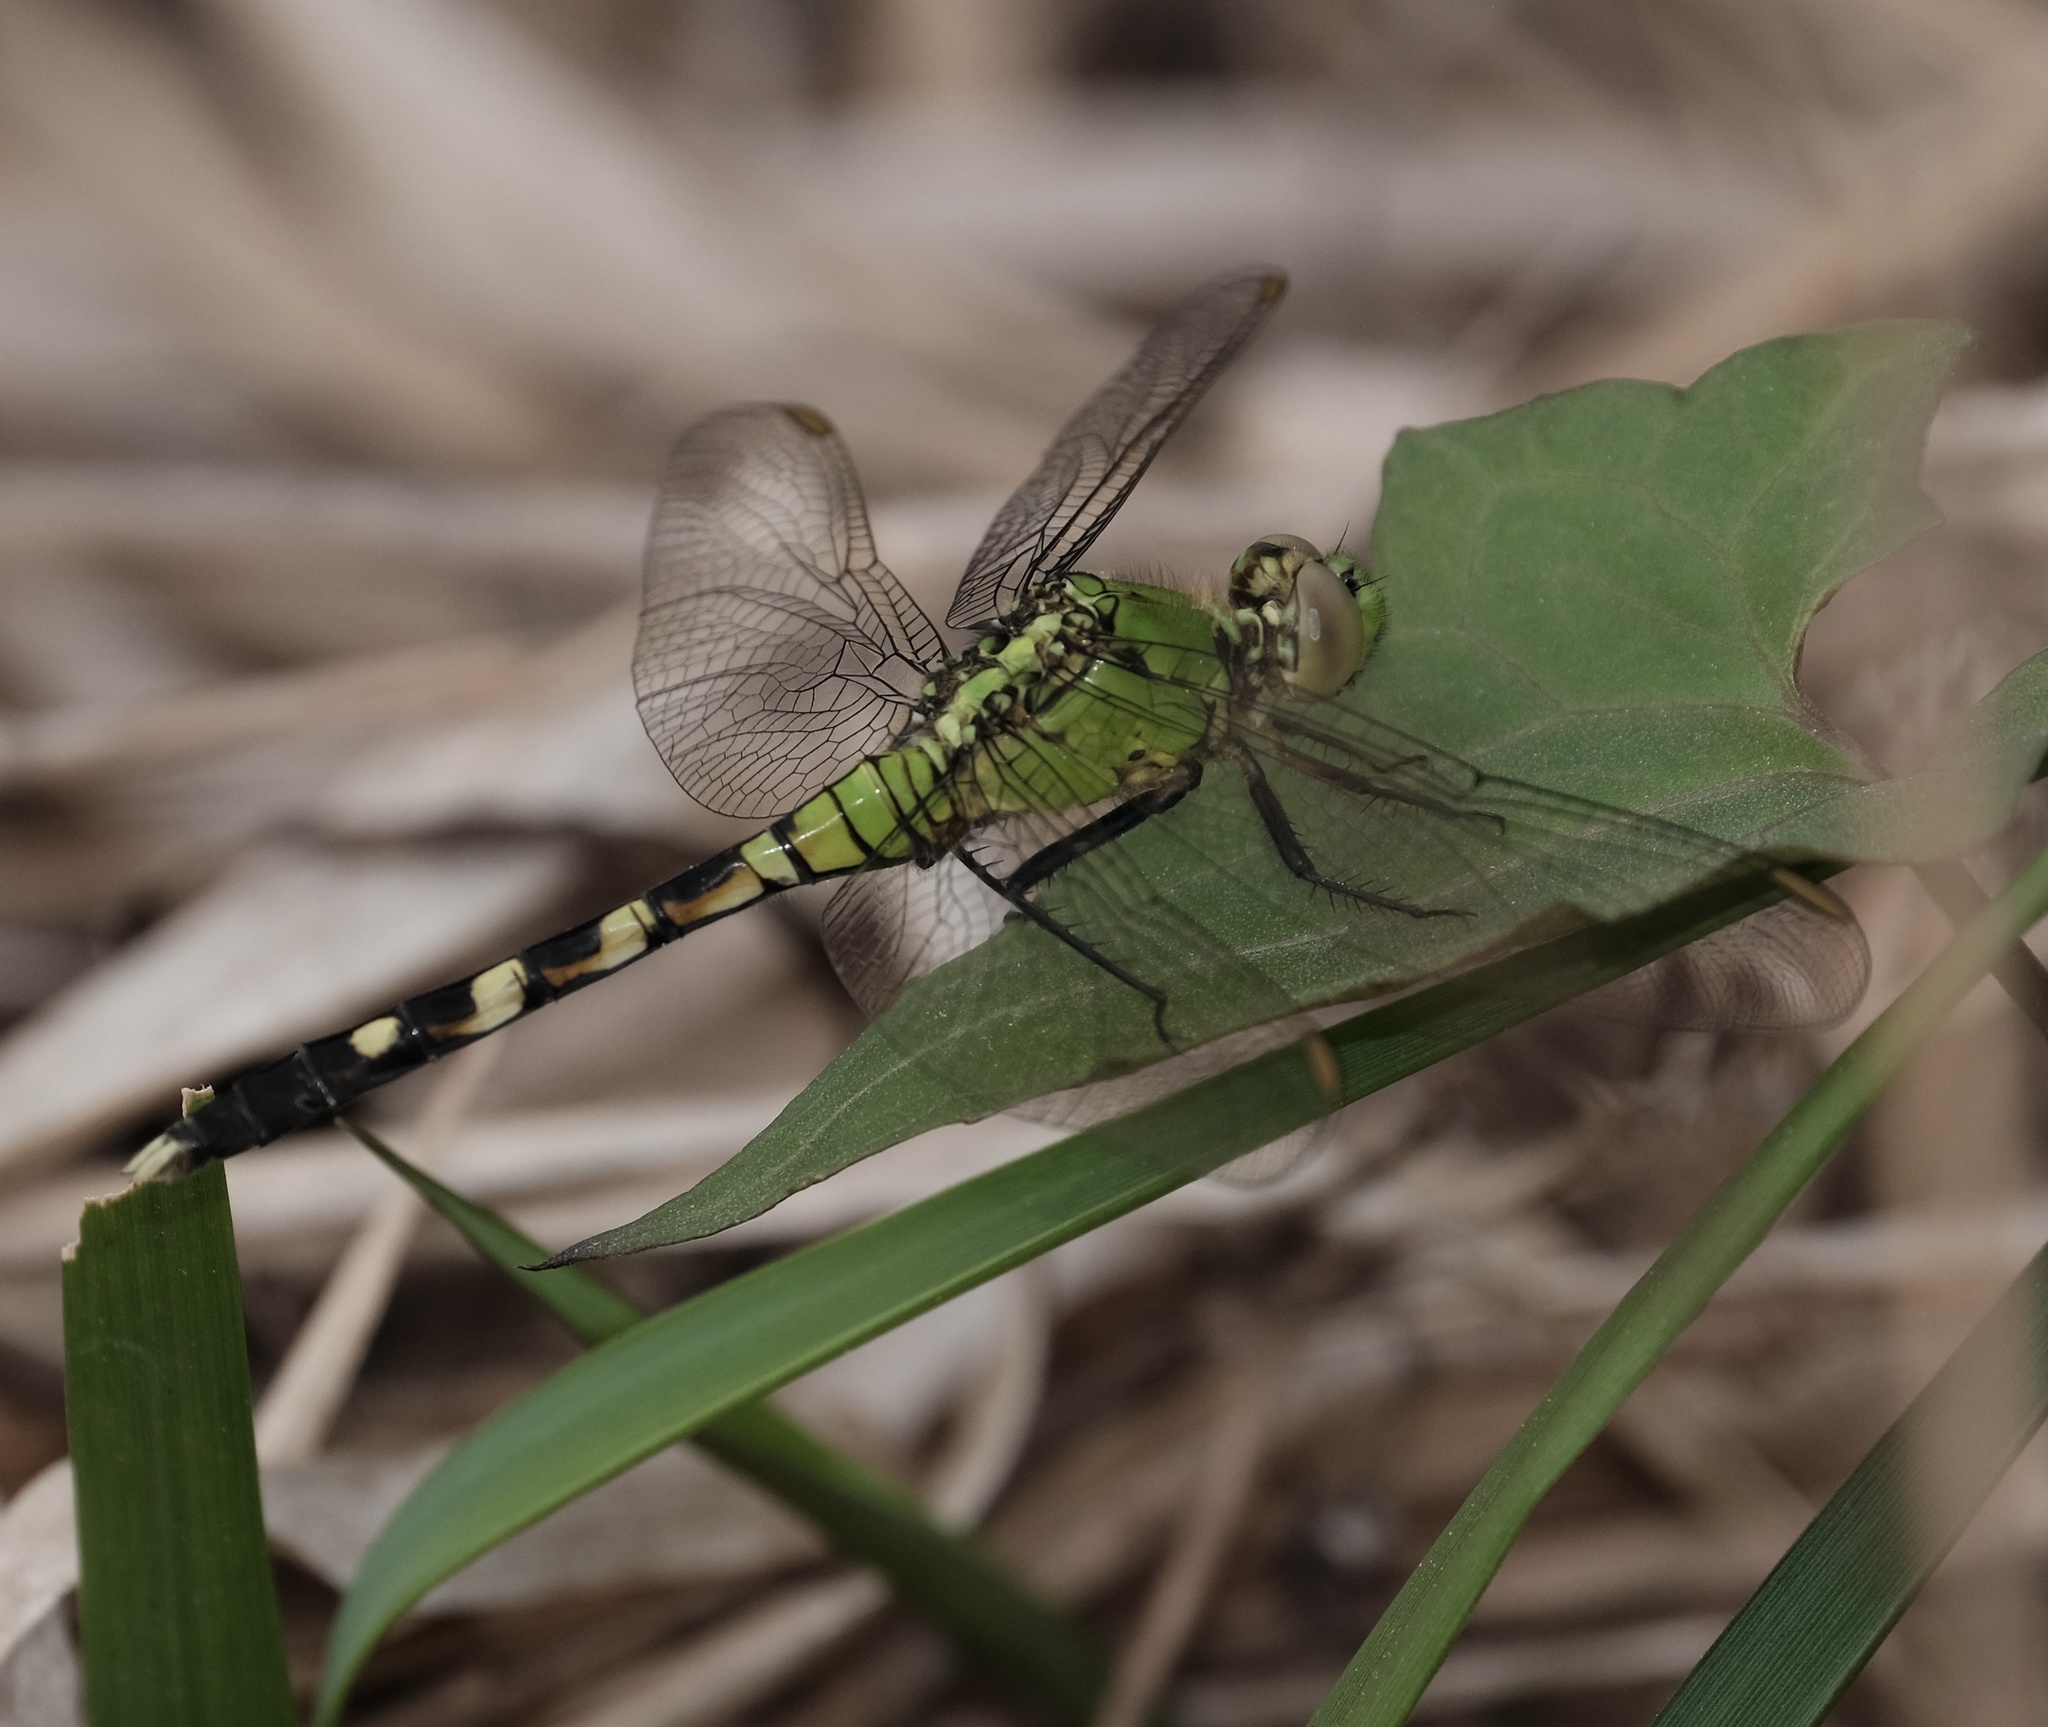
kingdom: Animalia
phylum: Arthropoda
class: Insecta
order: Odonata
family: Libellulidae
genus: Erythemis
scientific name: Erythemis simplicicollis
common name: Eastern pondhawk
